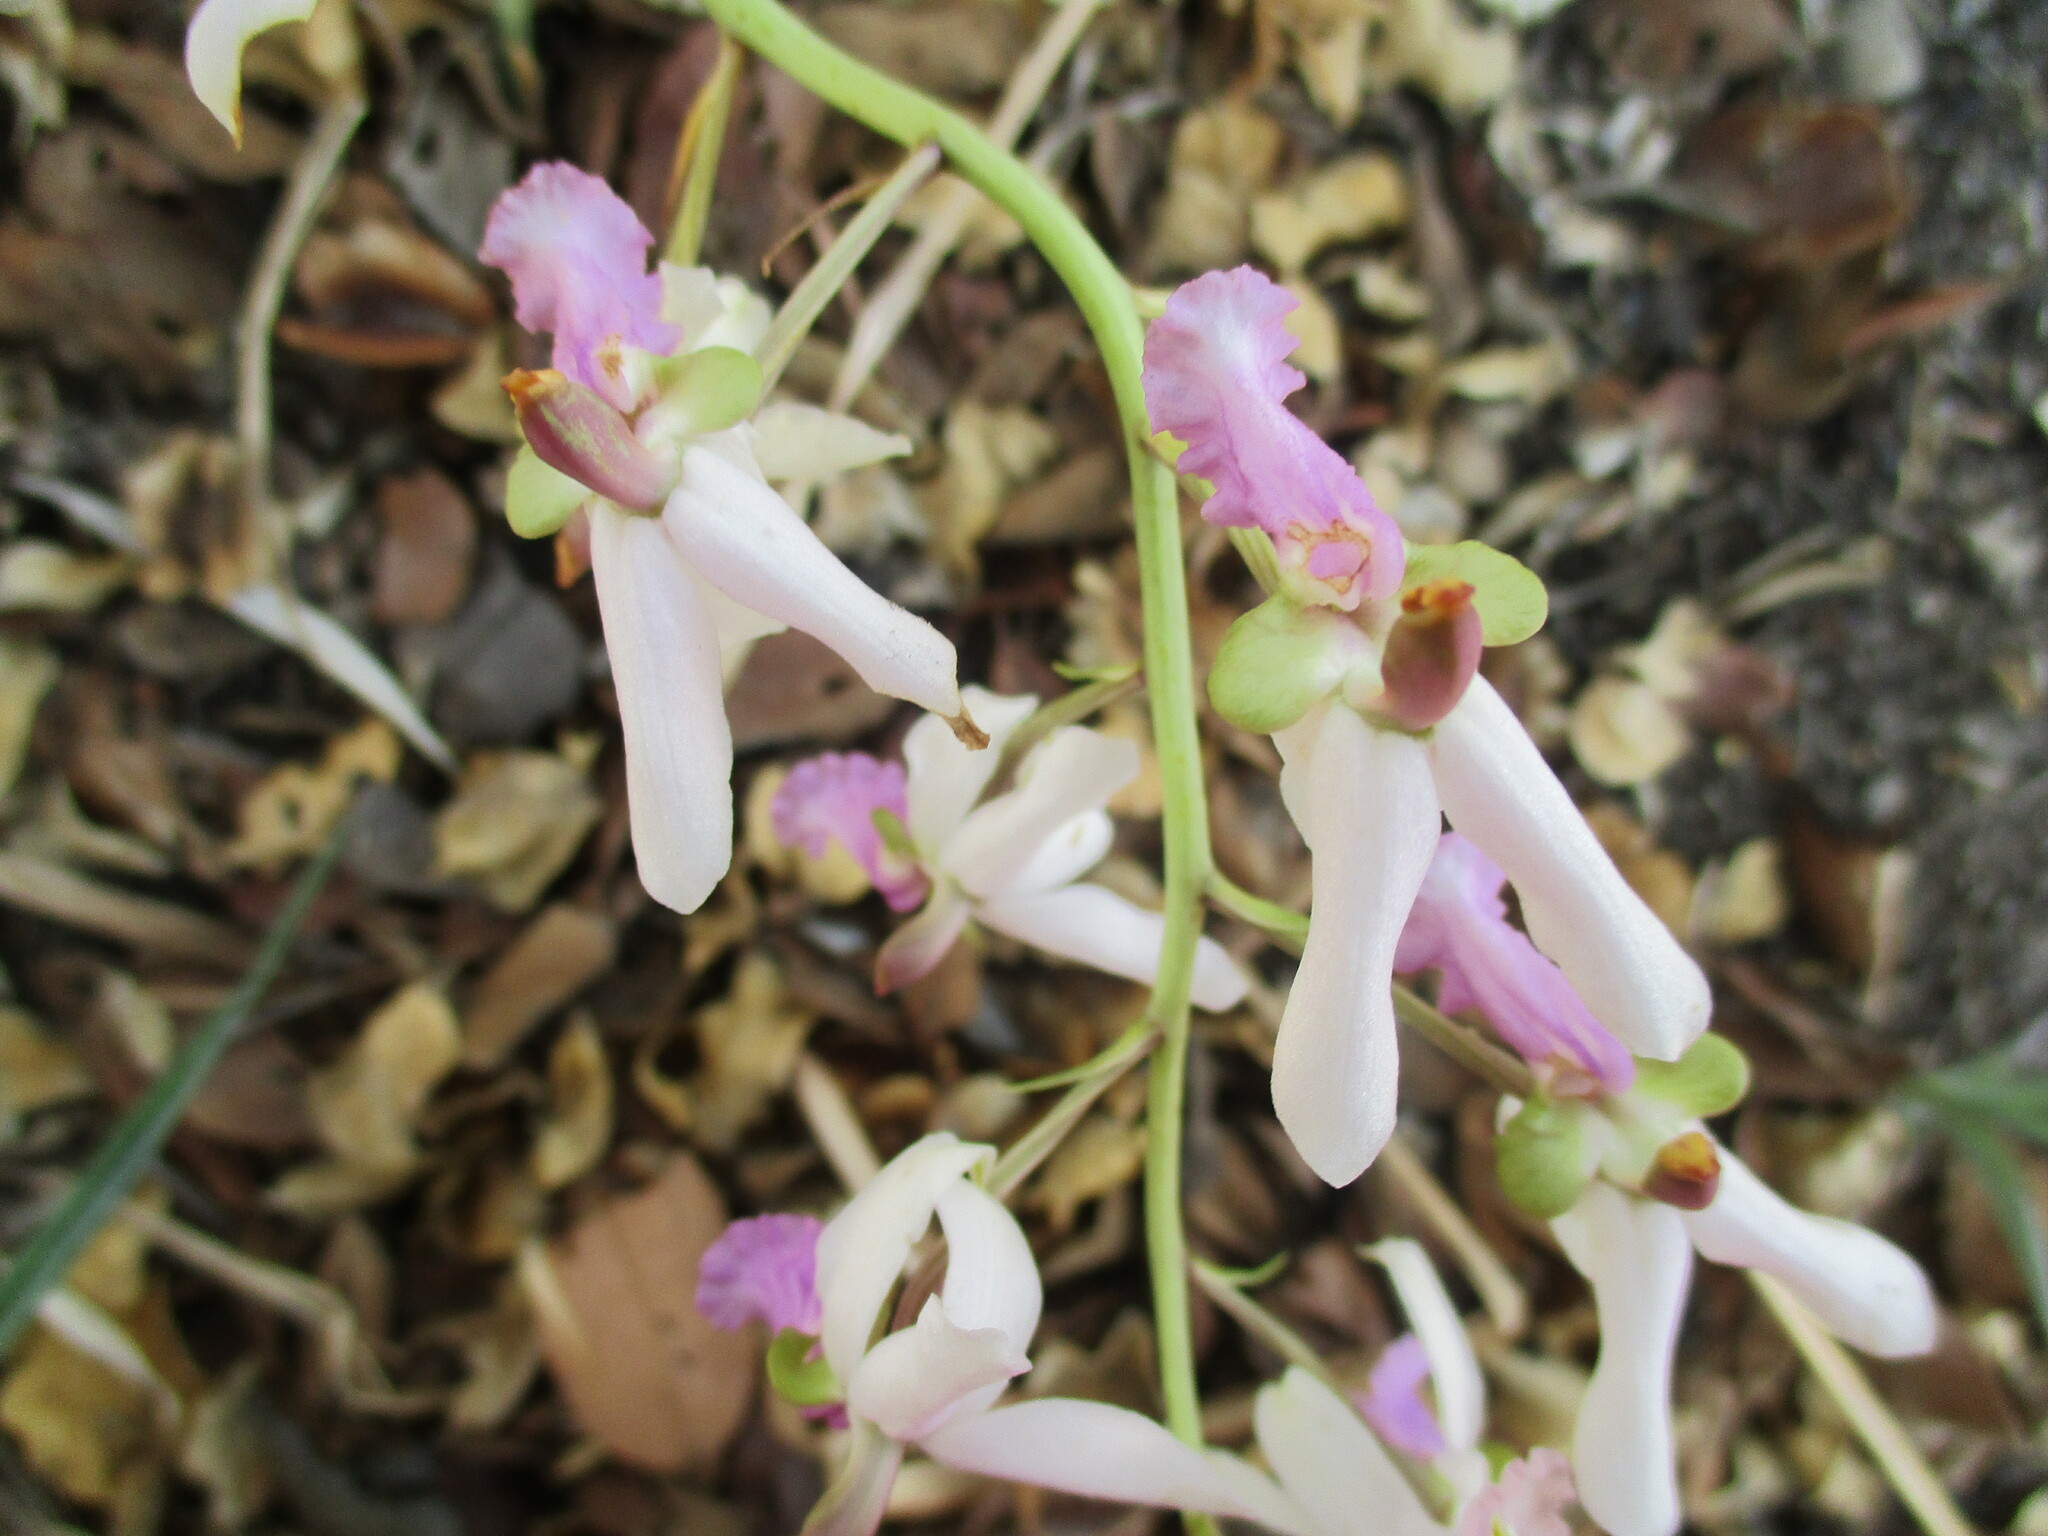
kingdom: Plantae
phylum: Tracheophyta
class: Liliopsida
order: Asparagales
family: Orchidaceae
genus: Eulophia
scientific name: Eulophia livingstoneana
